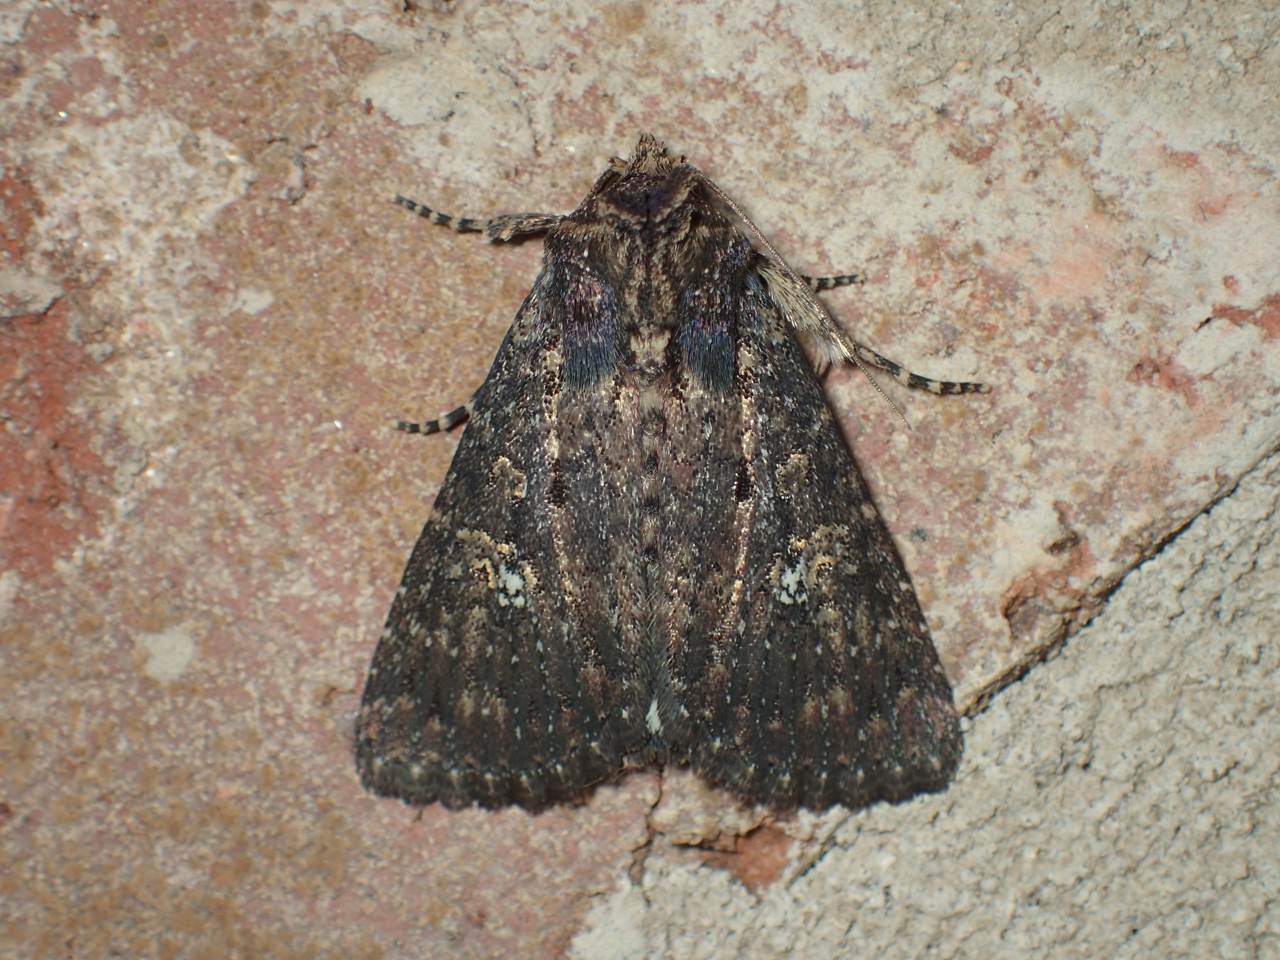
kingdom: Animalia
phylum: Arthropoda
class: Insecta
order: Lepidoptera
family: Noctuidae
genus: Condica
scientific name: Condica vecors
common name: Dusky groundling
